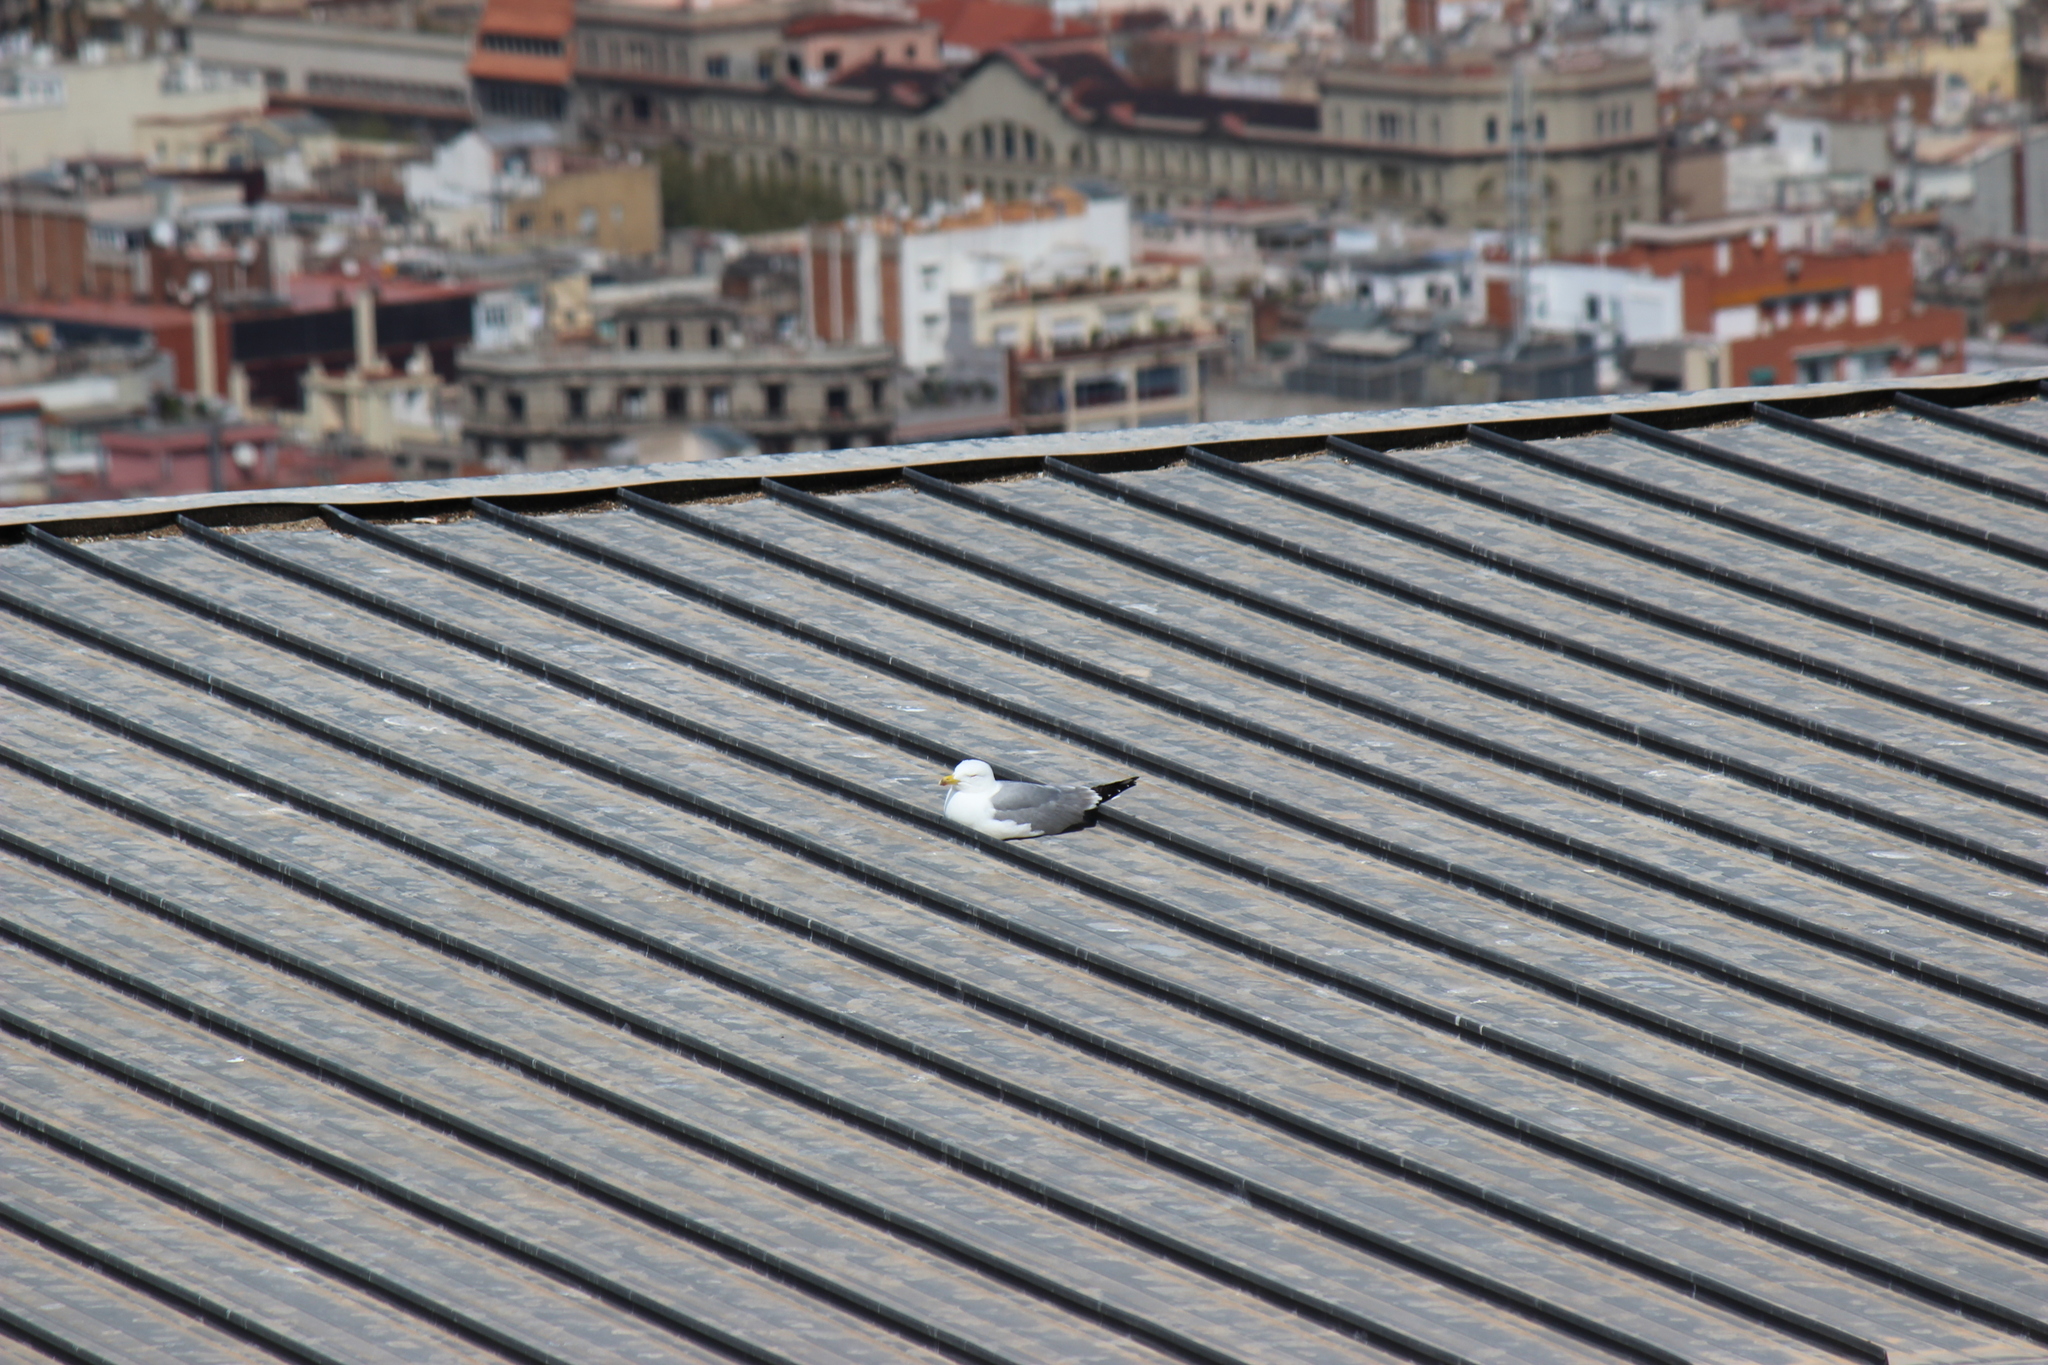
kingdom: Animalia
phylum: Chordata
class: Aves
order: Charadriiformes
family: Laridae
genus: Larus
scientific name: Larus michahellis
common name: Yellow-legged gull
